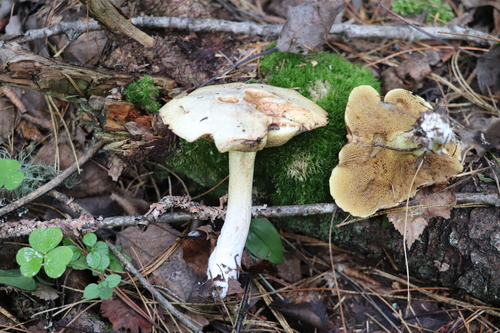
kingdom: Fungi
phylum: Basidiomycota
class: Agaricomycetes
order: Boletales
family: Suillaceae
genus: Suillus
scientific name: Suillus placidus
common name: Slippery white bolete
